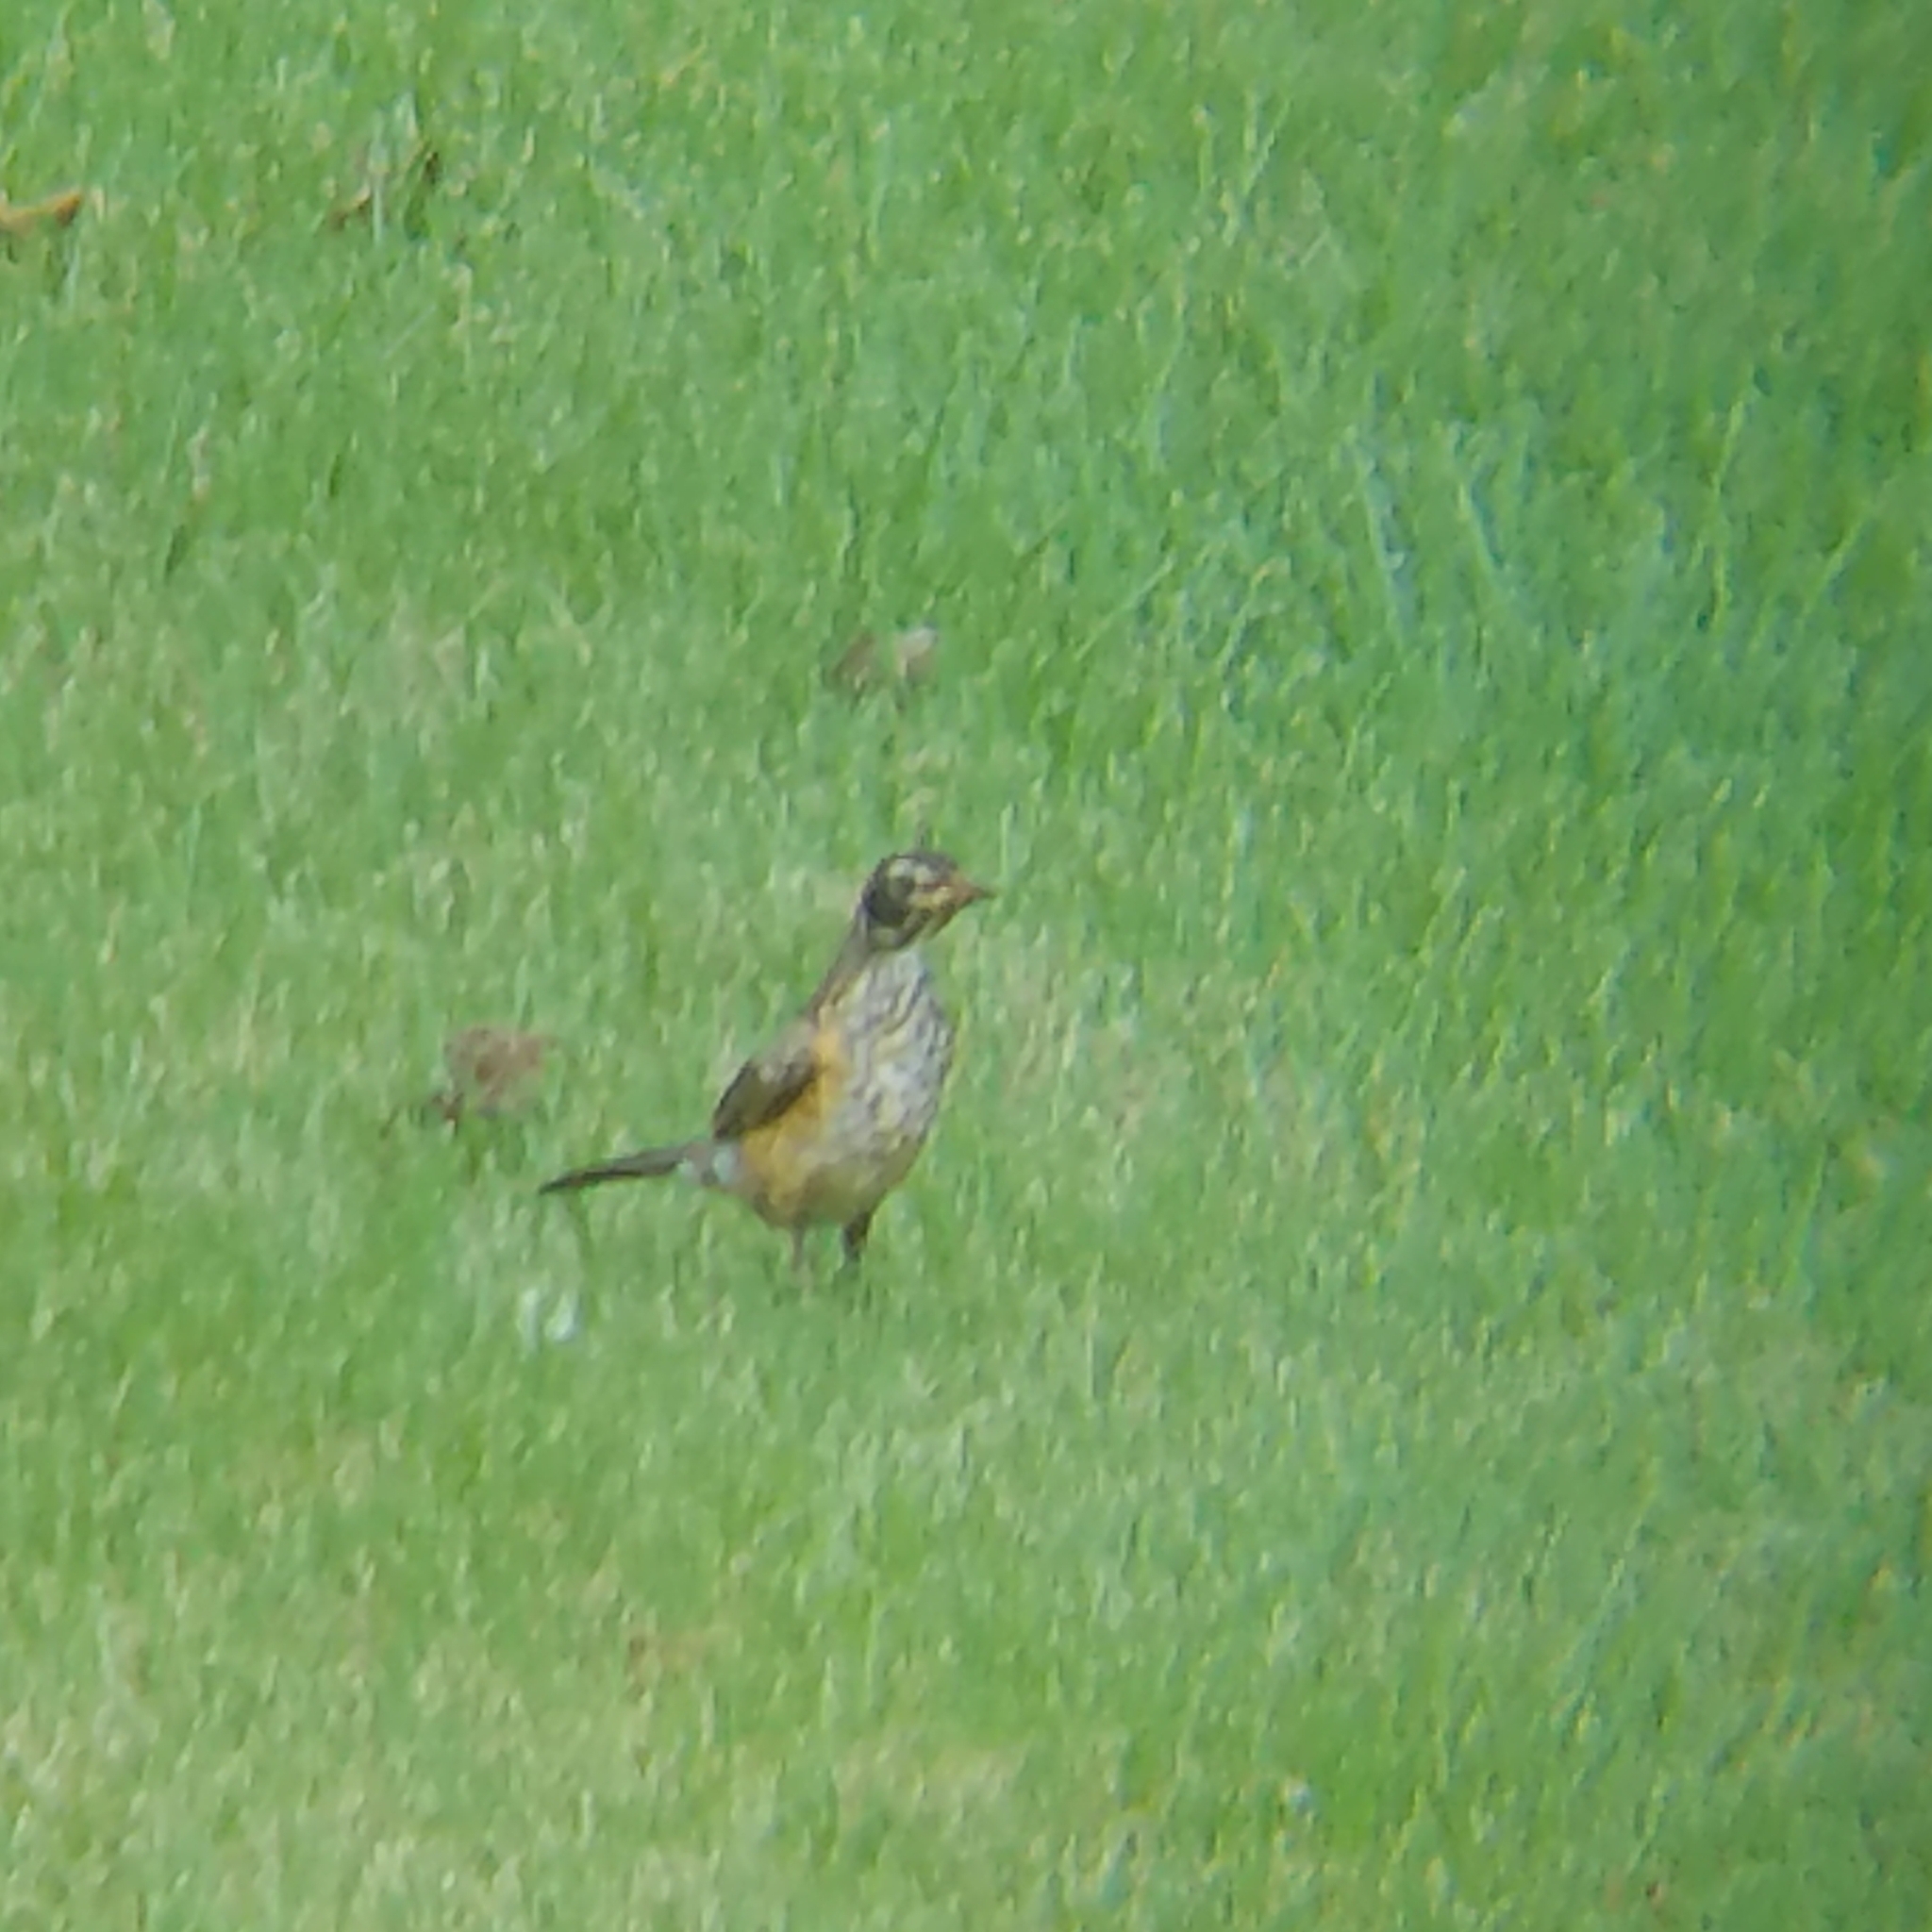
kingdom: Animalia
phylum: Chordata
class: Aves
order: Passeriformes
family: Turdidae
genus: Turdus
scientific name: Turdus migratorius
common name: American robin
